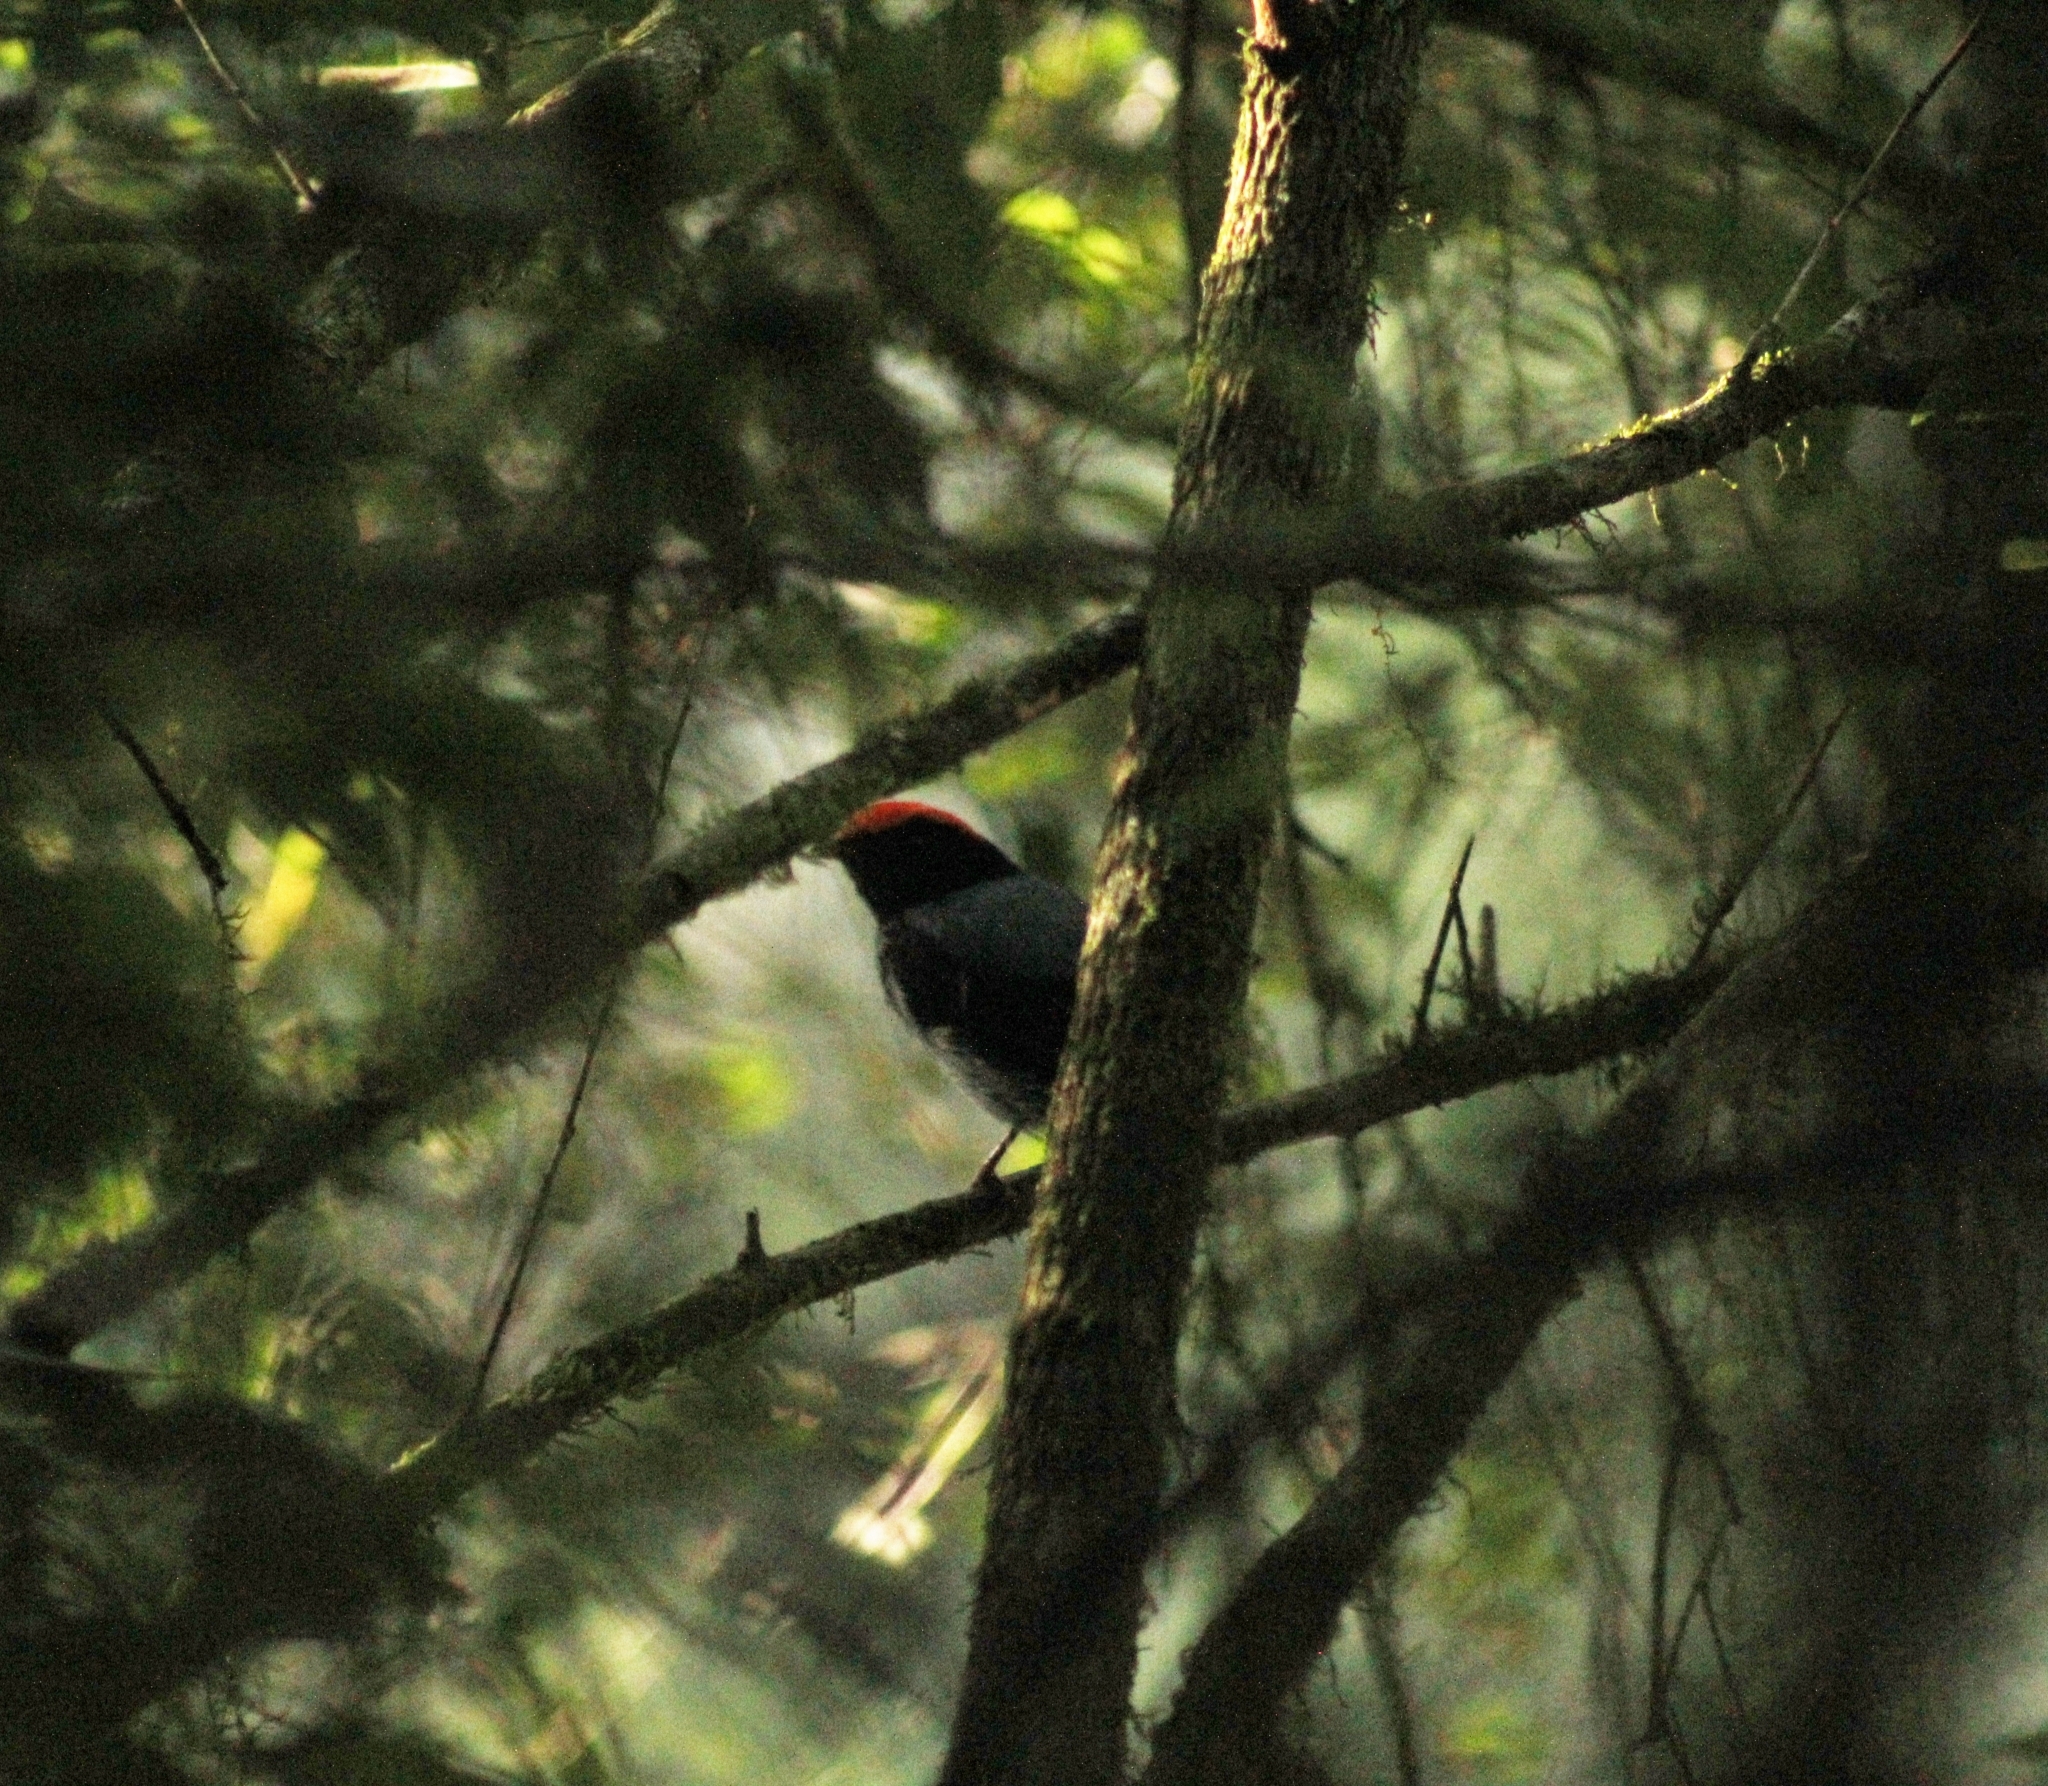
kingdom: Animalia
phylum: Chordata
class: Aves
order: Passeriformes
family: Pipridae
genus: Chiroxiphia
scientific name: Chiroxiphia caudata
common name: Blue manakin
